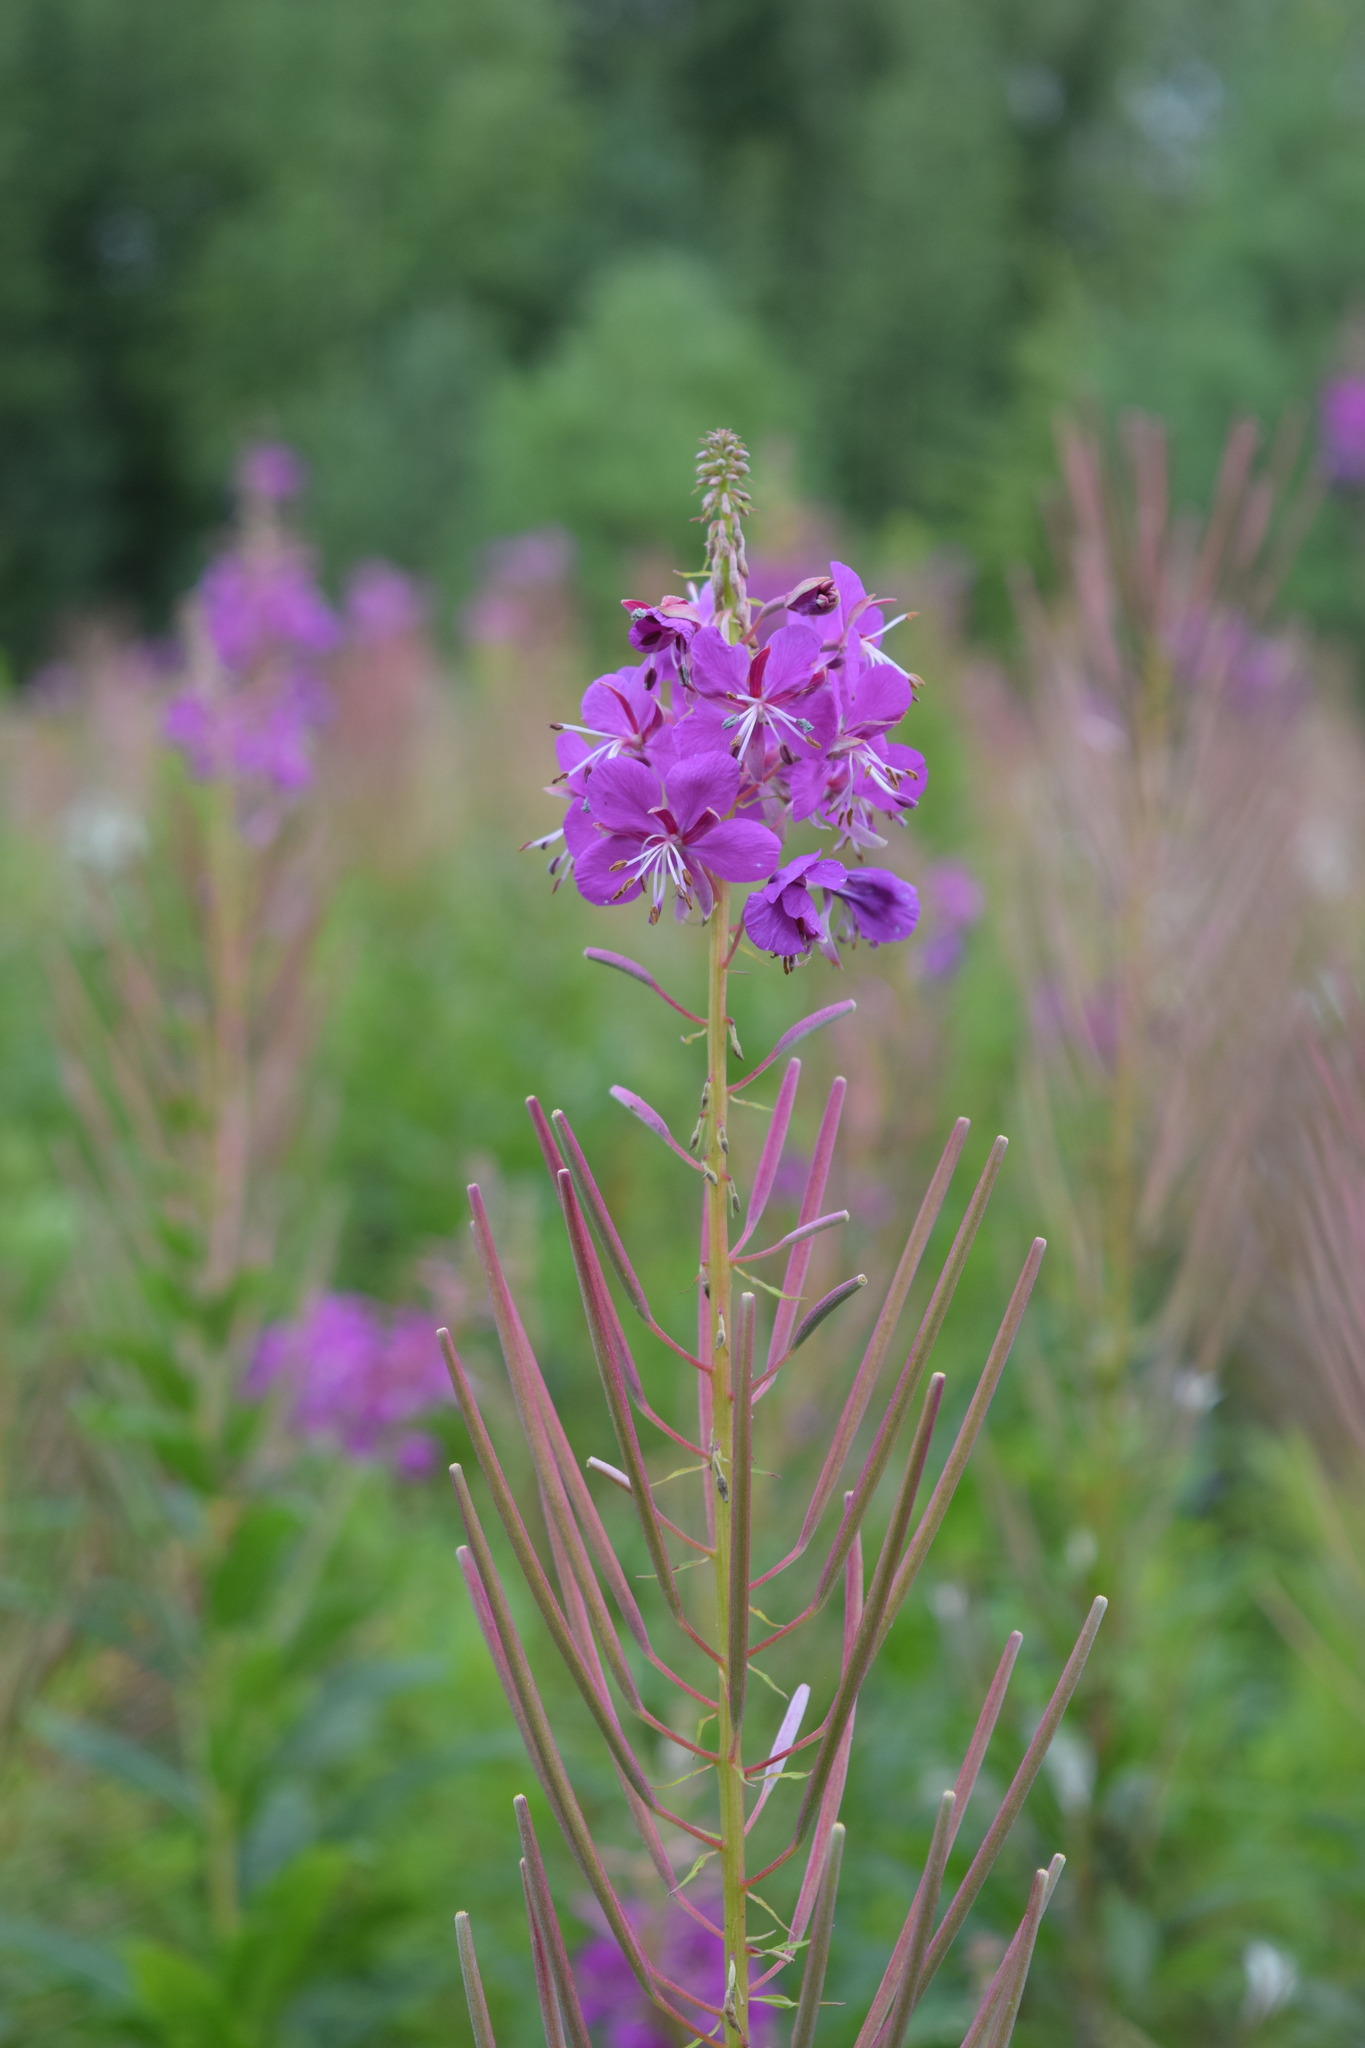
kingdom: Plantae
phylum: Tracheophyta
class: Magnoliopsida
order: Myrtales
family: Onagraceae
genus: Chamaenerion
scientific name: Chamaenerion angustifolium
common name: Fireweed
